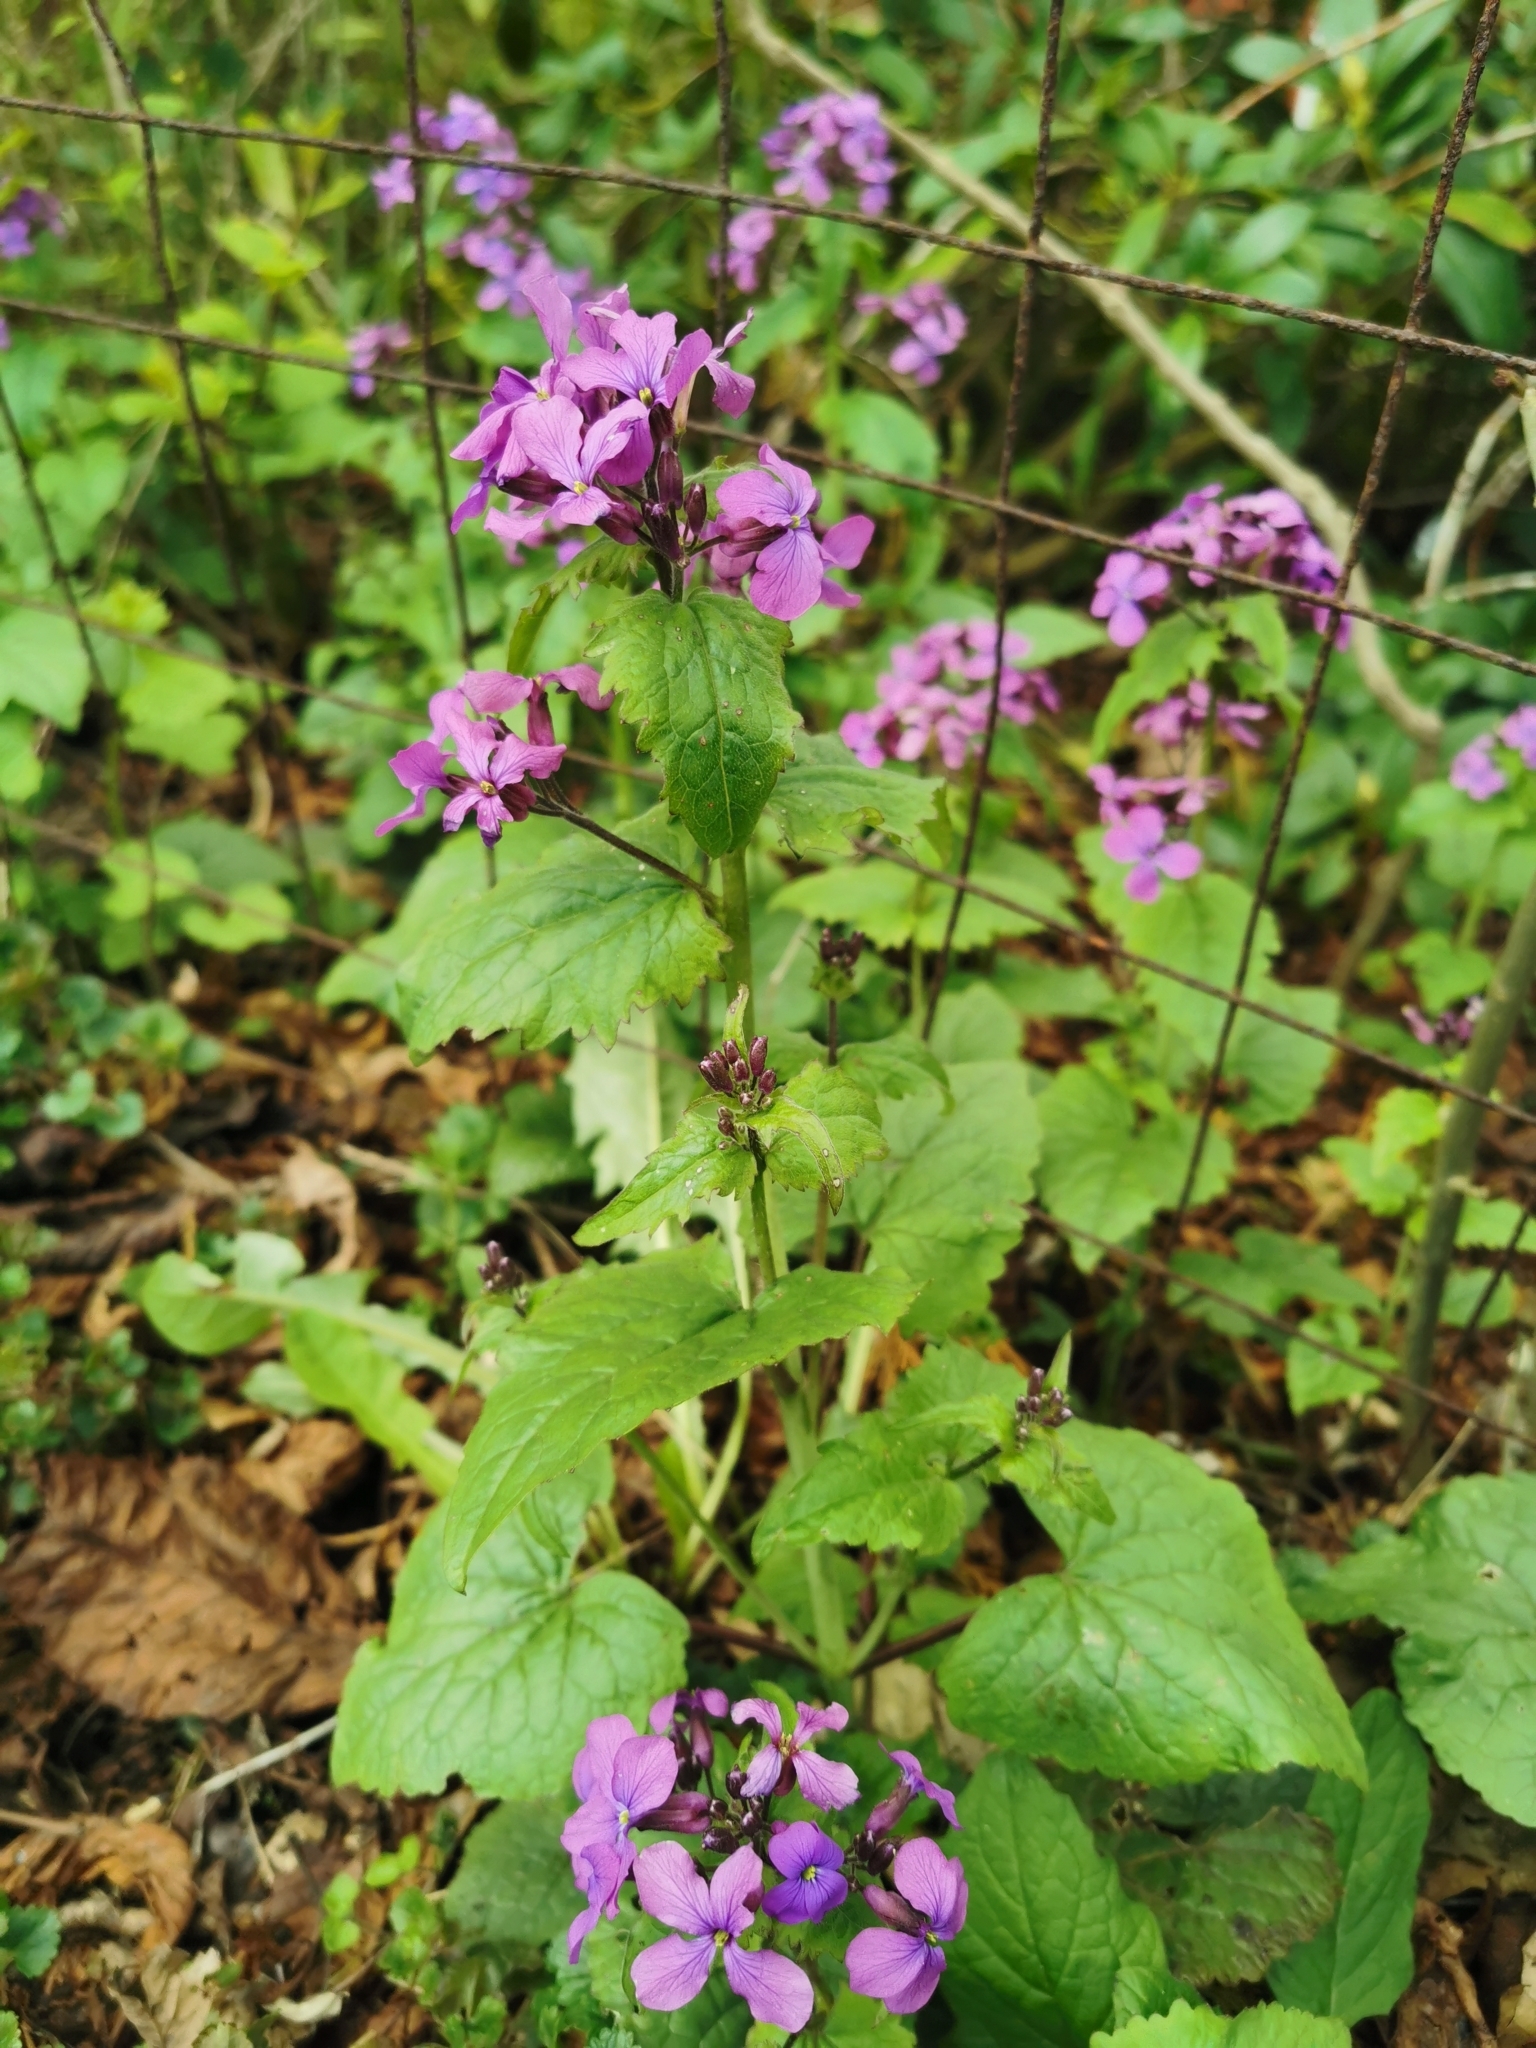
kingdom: Plantae
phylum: Tracheophyta
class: Magnoliopsida
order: Brassicales
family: Brassicaceae
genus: Lunaria
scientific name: Lunaria annua
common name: Honesty
